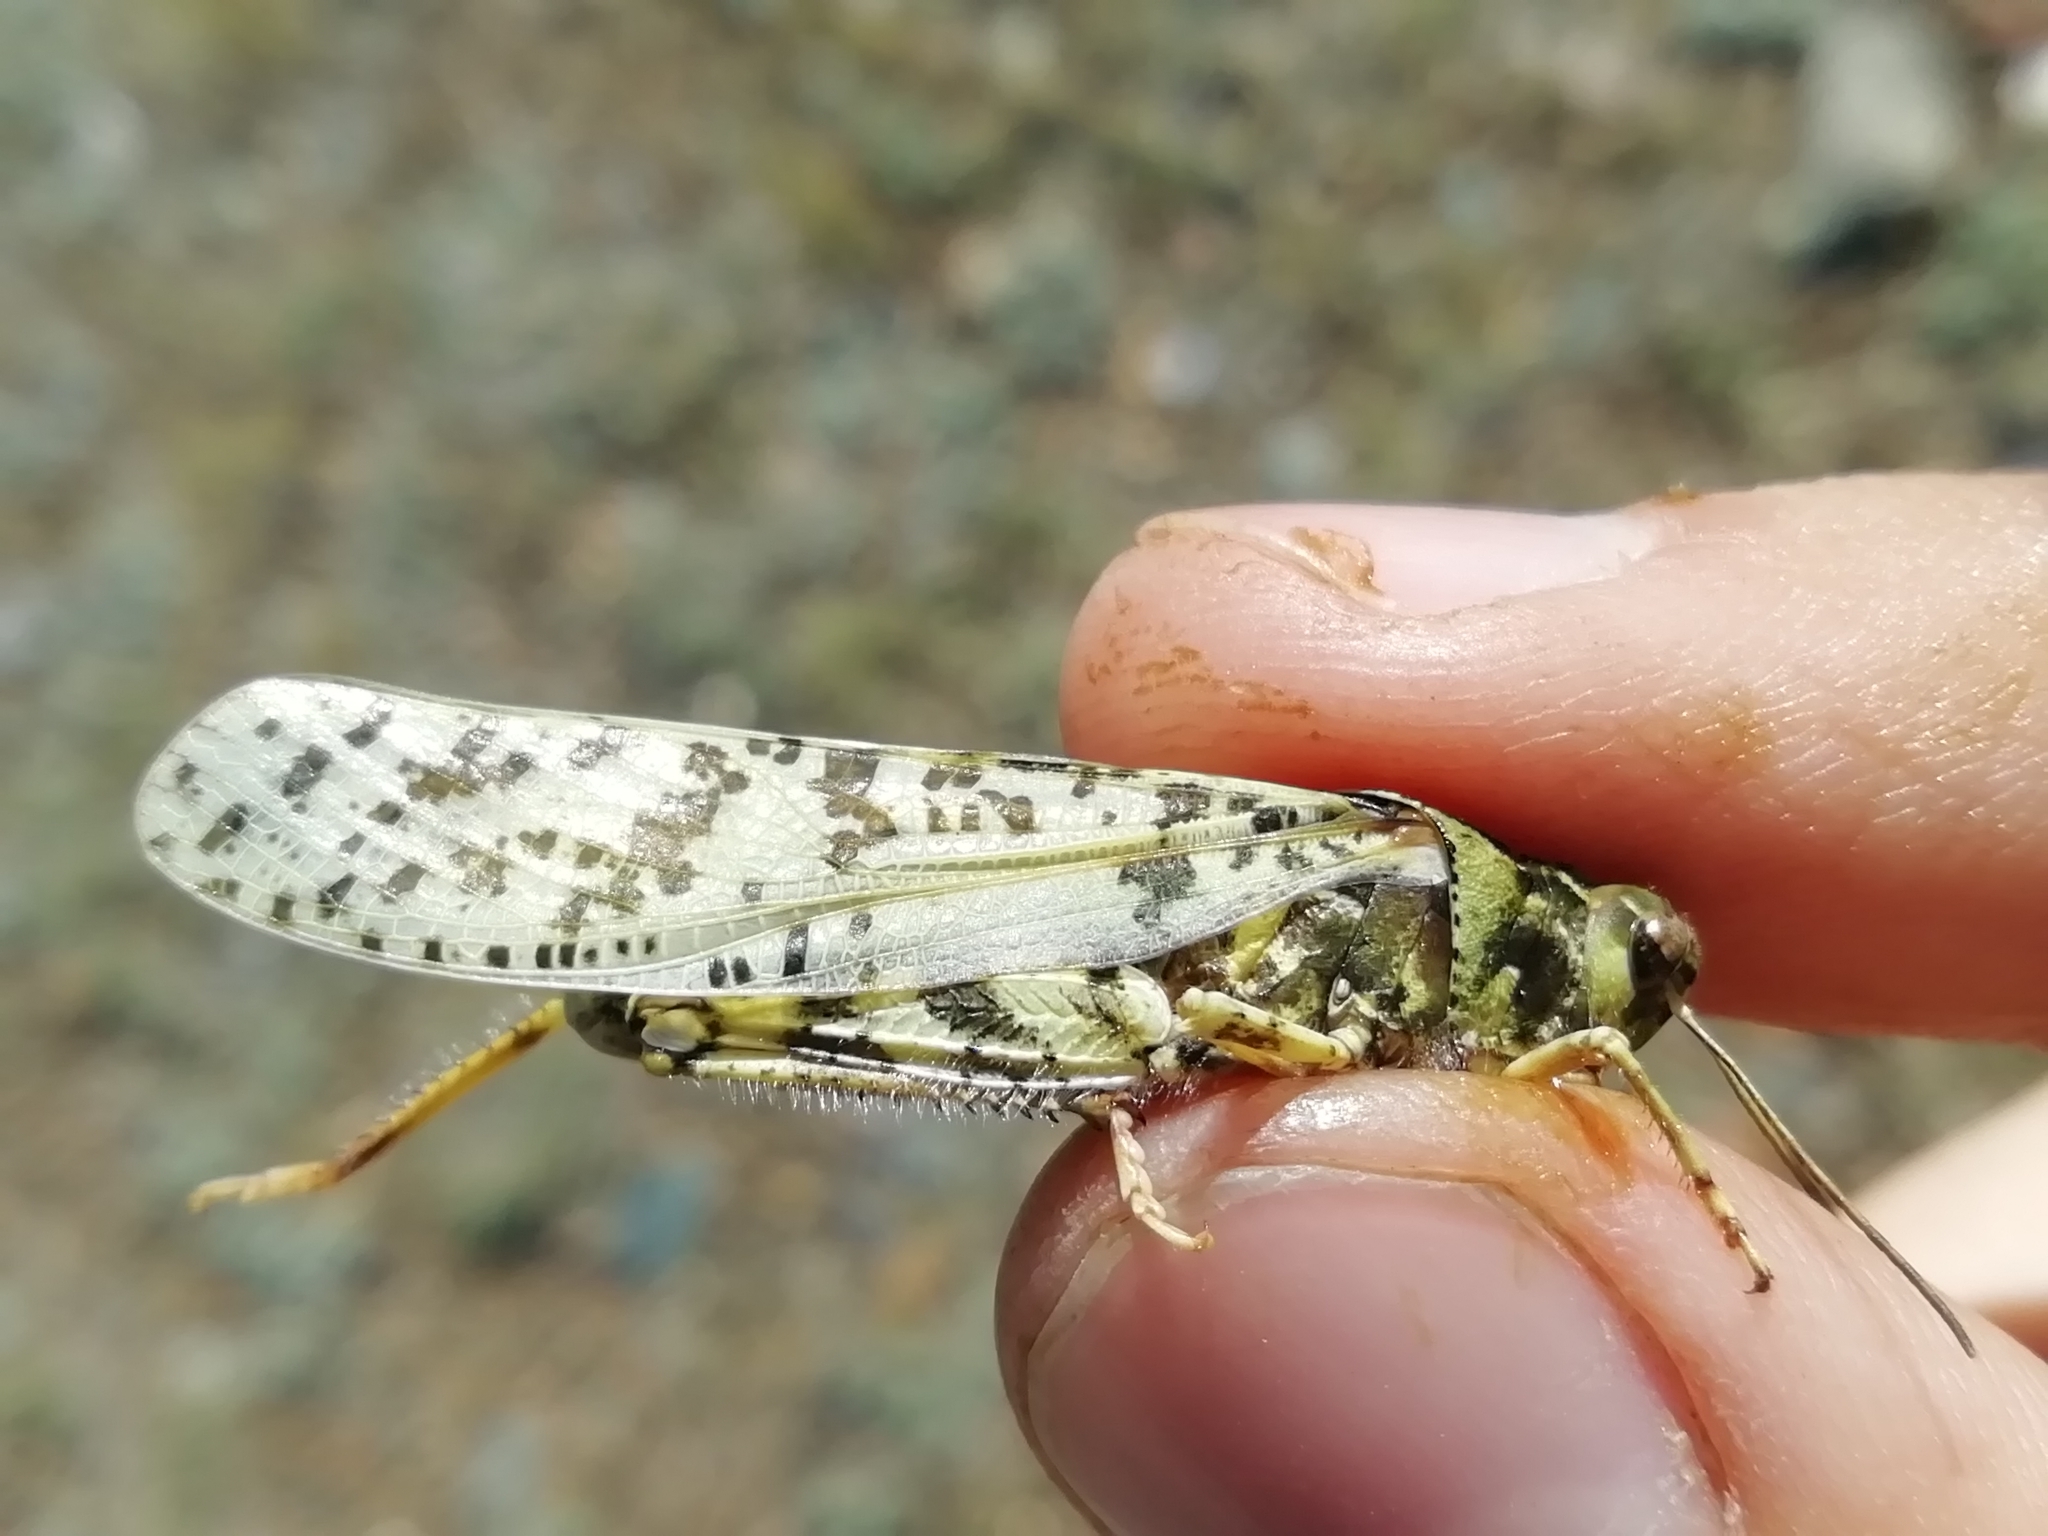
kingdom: Animalia
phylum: Arthropoda
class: Insecta
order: Orthoptera
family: Acrididae
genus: Angaracris
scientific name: Angaracris barabensis
